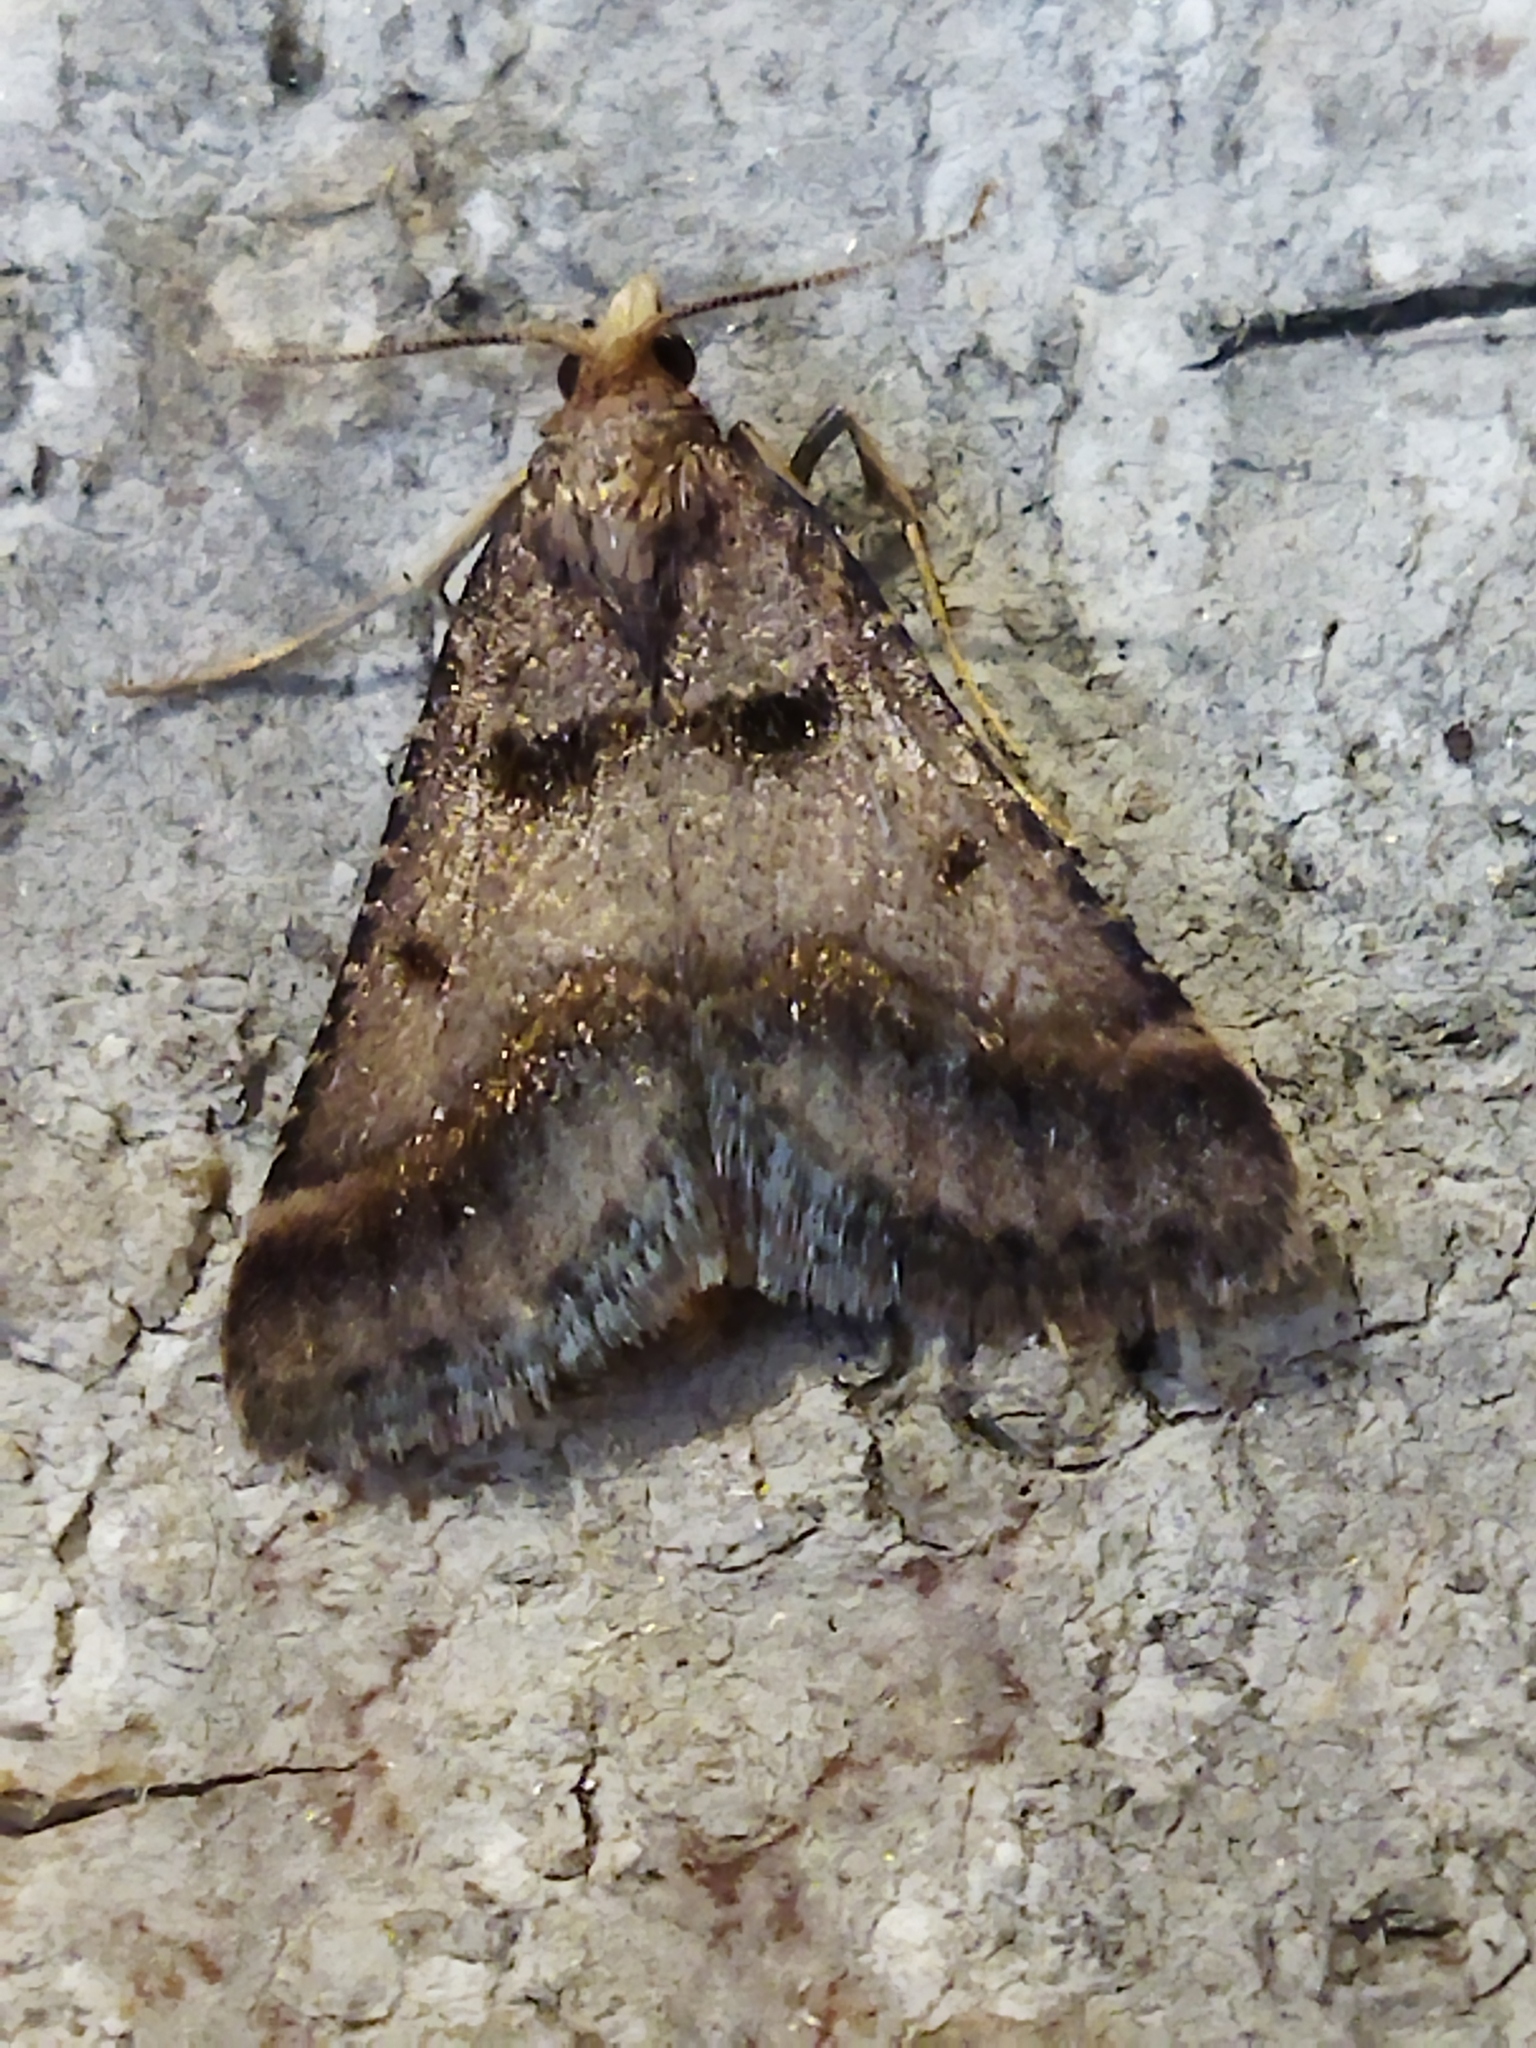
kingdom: Animalia
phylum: Arthropoda
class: Insecta
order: Lepidoptera
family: Pyralidae
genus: Stemmatophora
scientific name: Stemmatophora brunnealis
